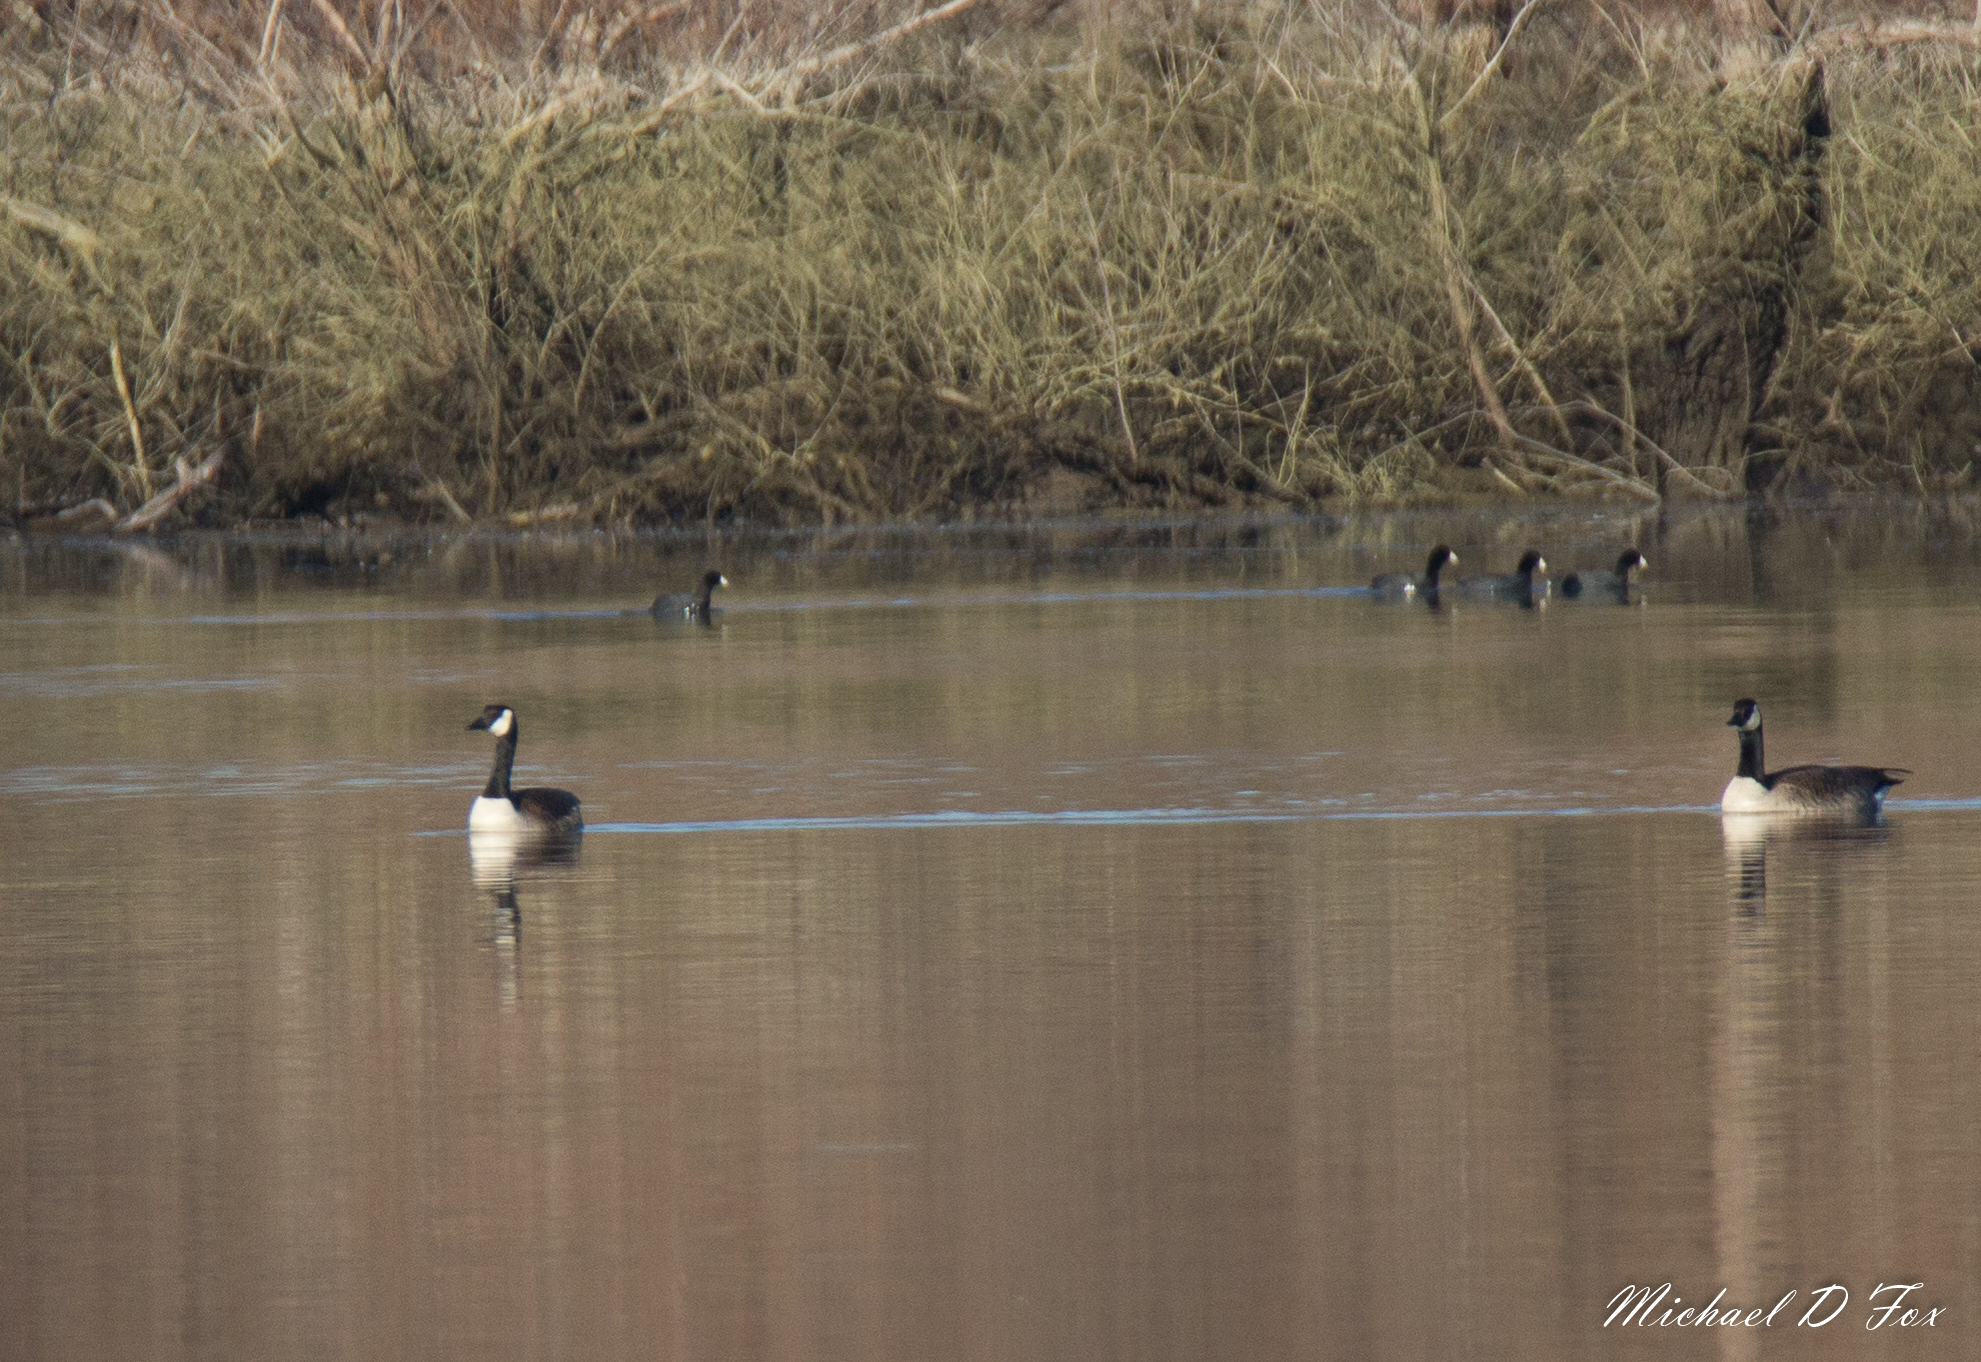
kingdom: Animalia
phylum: Chordata
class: Aves
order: Anseriformes
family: Anatidae
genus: Branta
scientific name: Branta canadensis
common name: Canada goose
